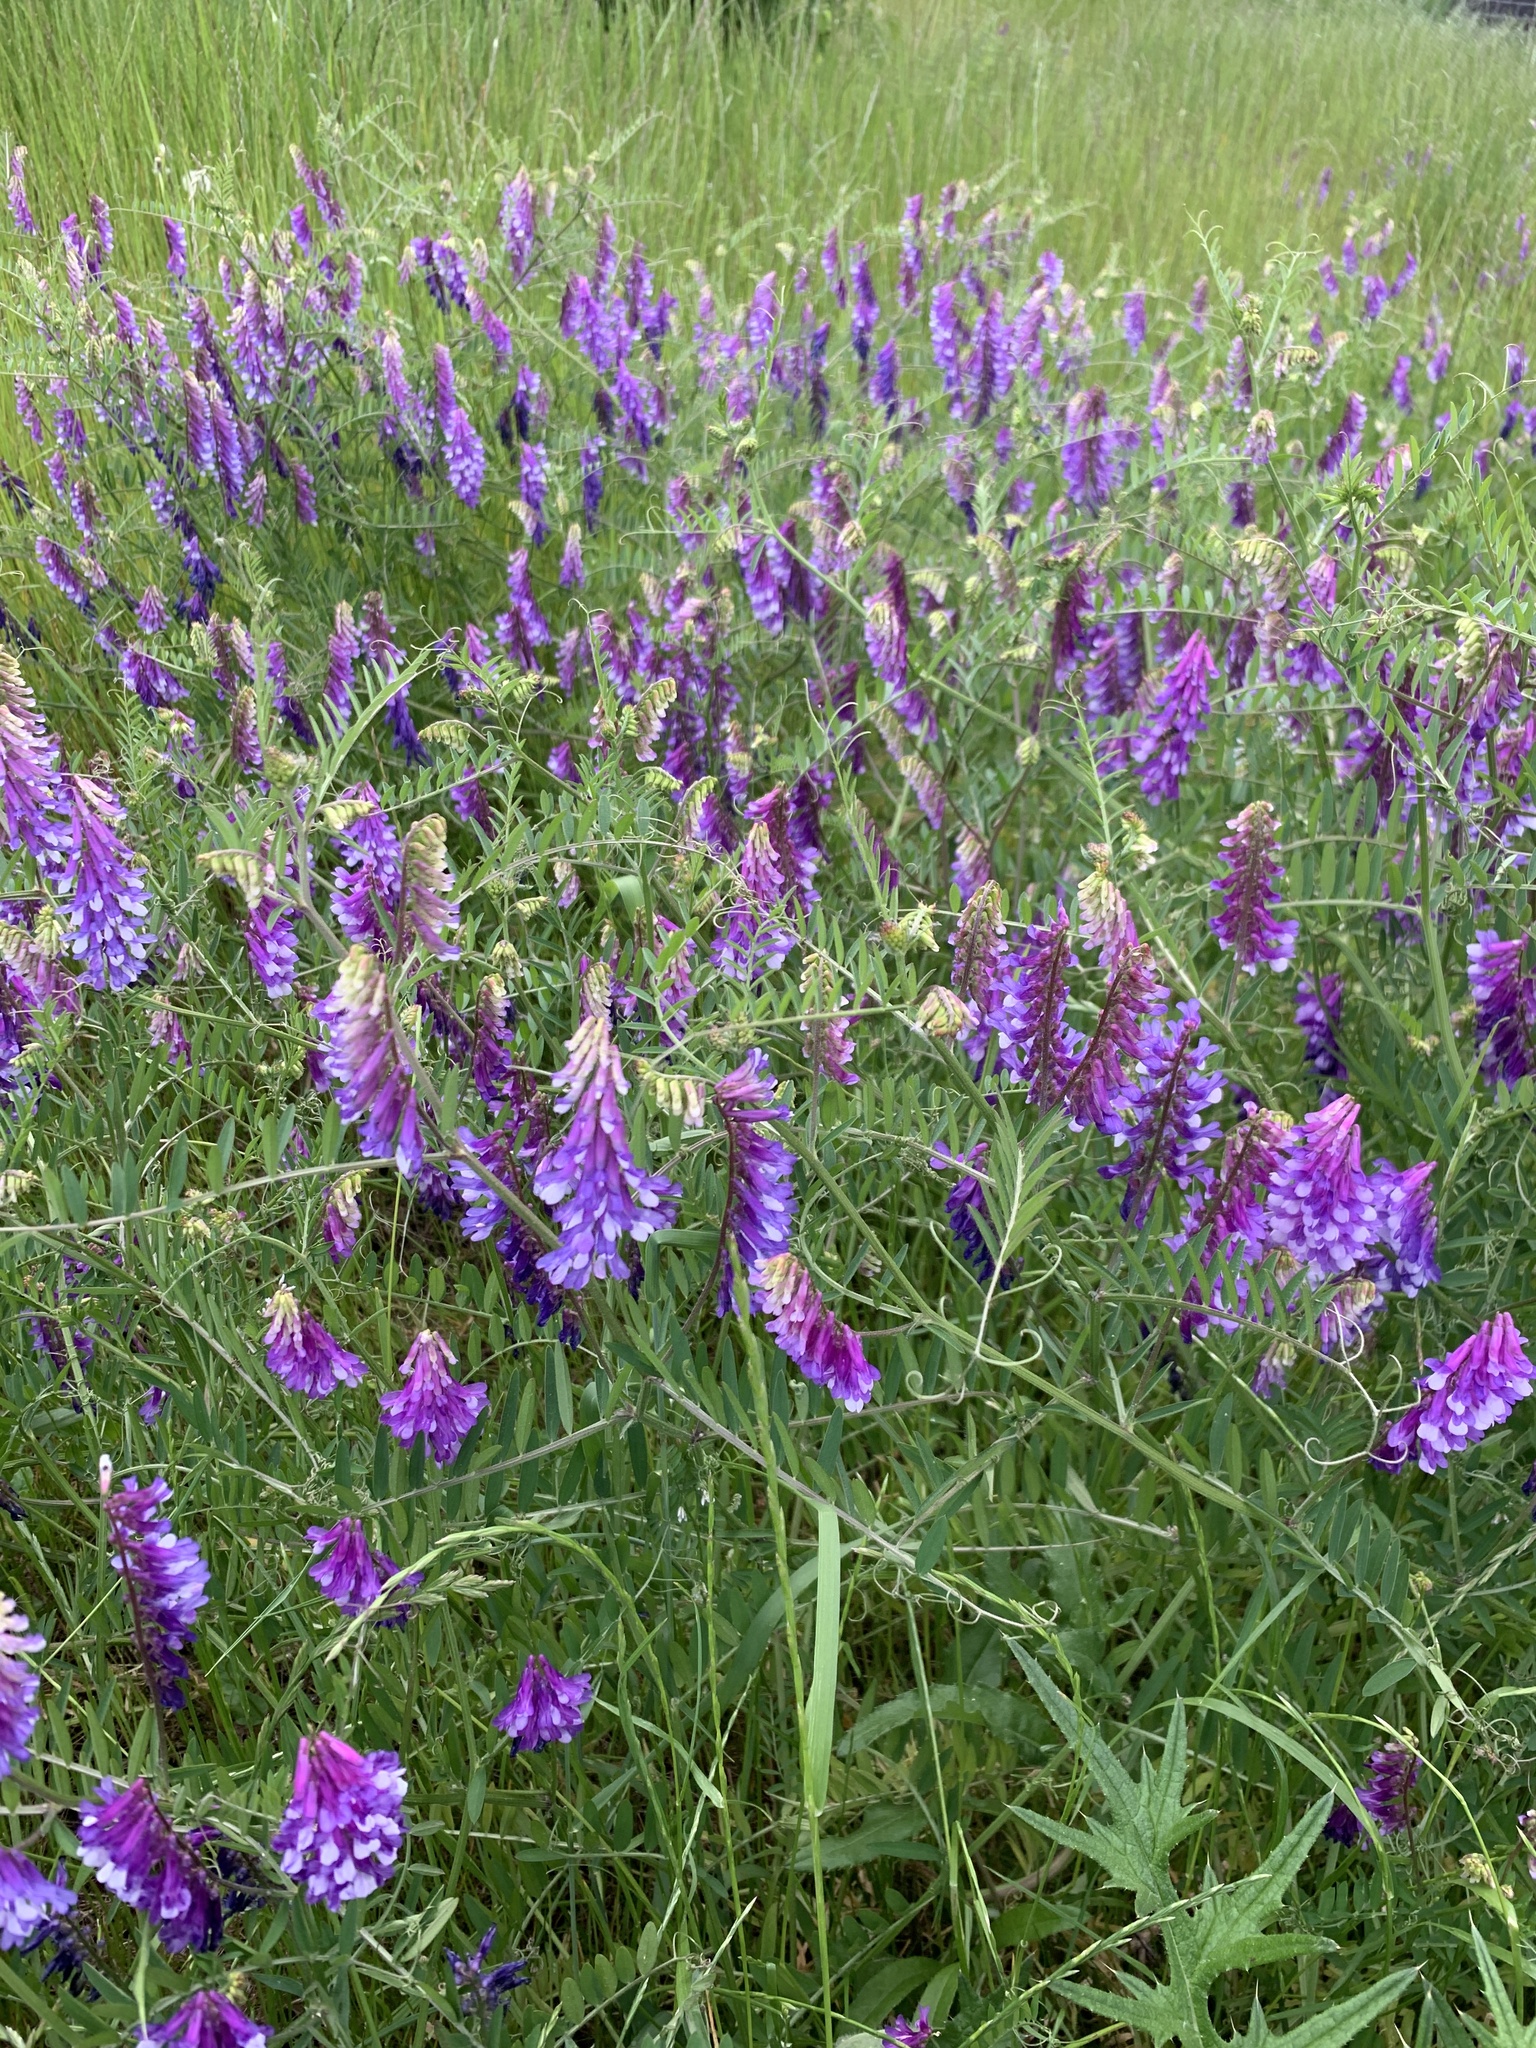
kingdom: Plantae
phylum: Tracheophyta
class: Magnoliopsida
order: Fabales
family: Fabaceae
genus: Vicia
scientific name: Vicia villosa
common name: Fodder vetch
